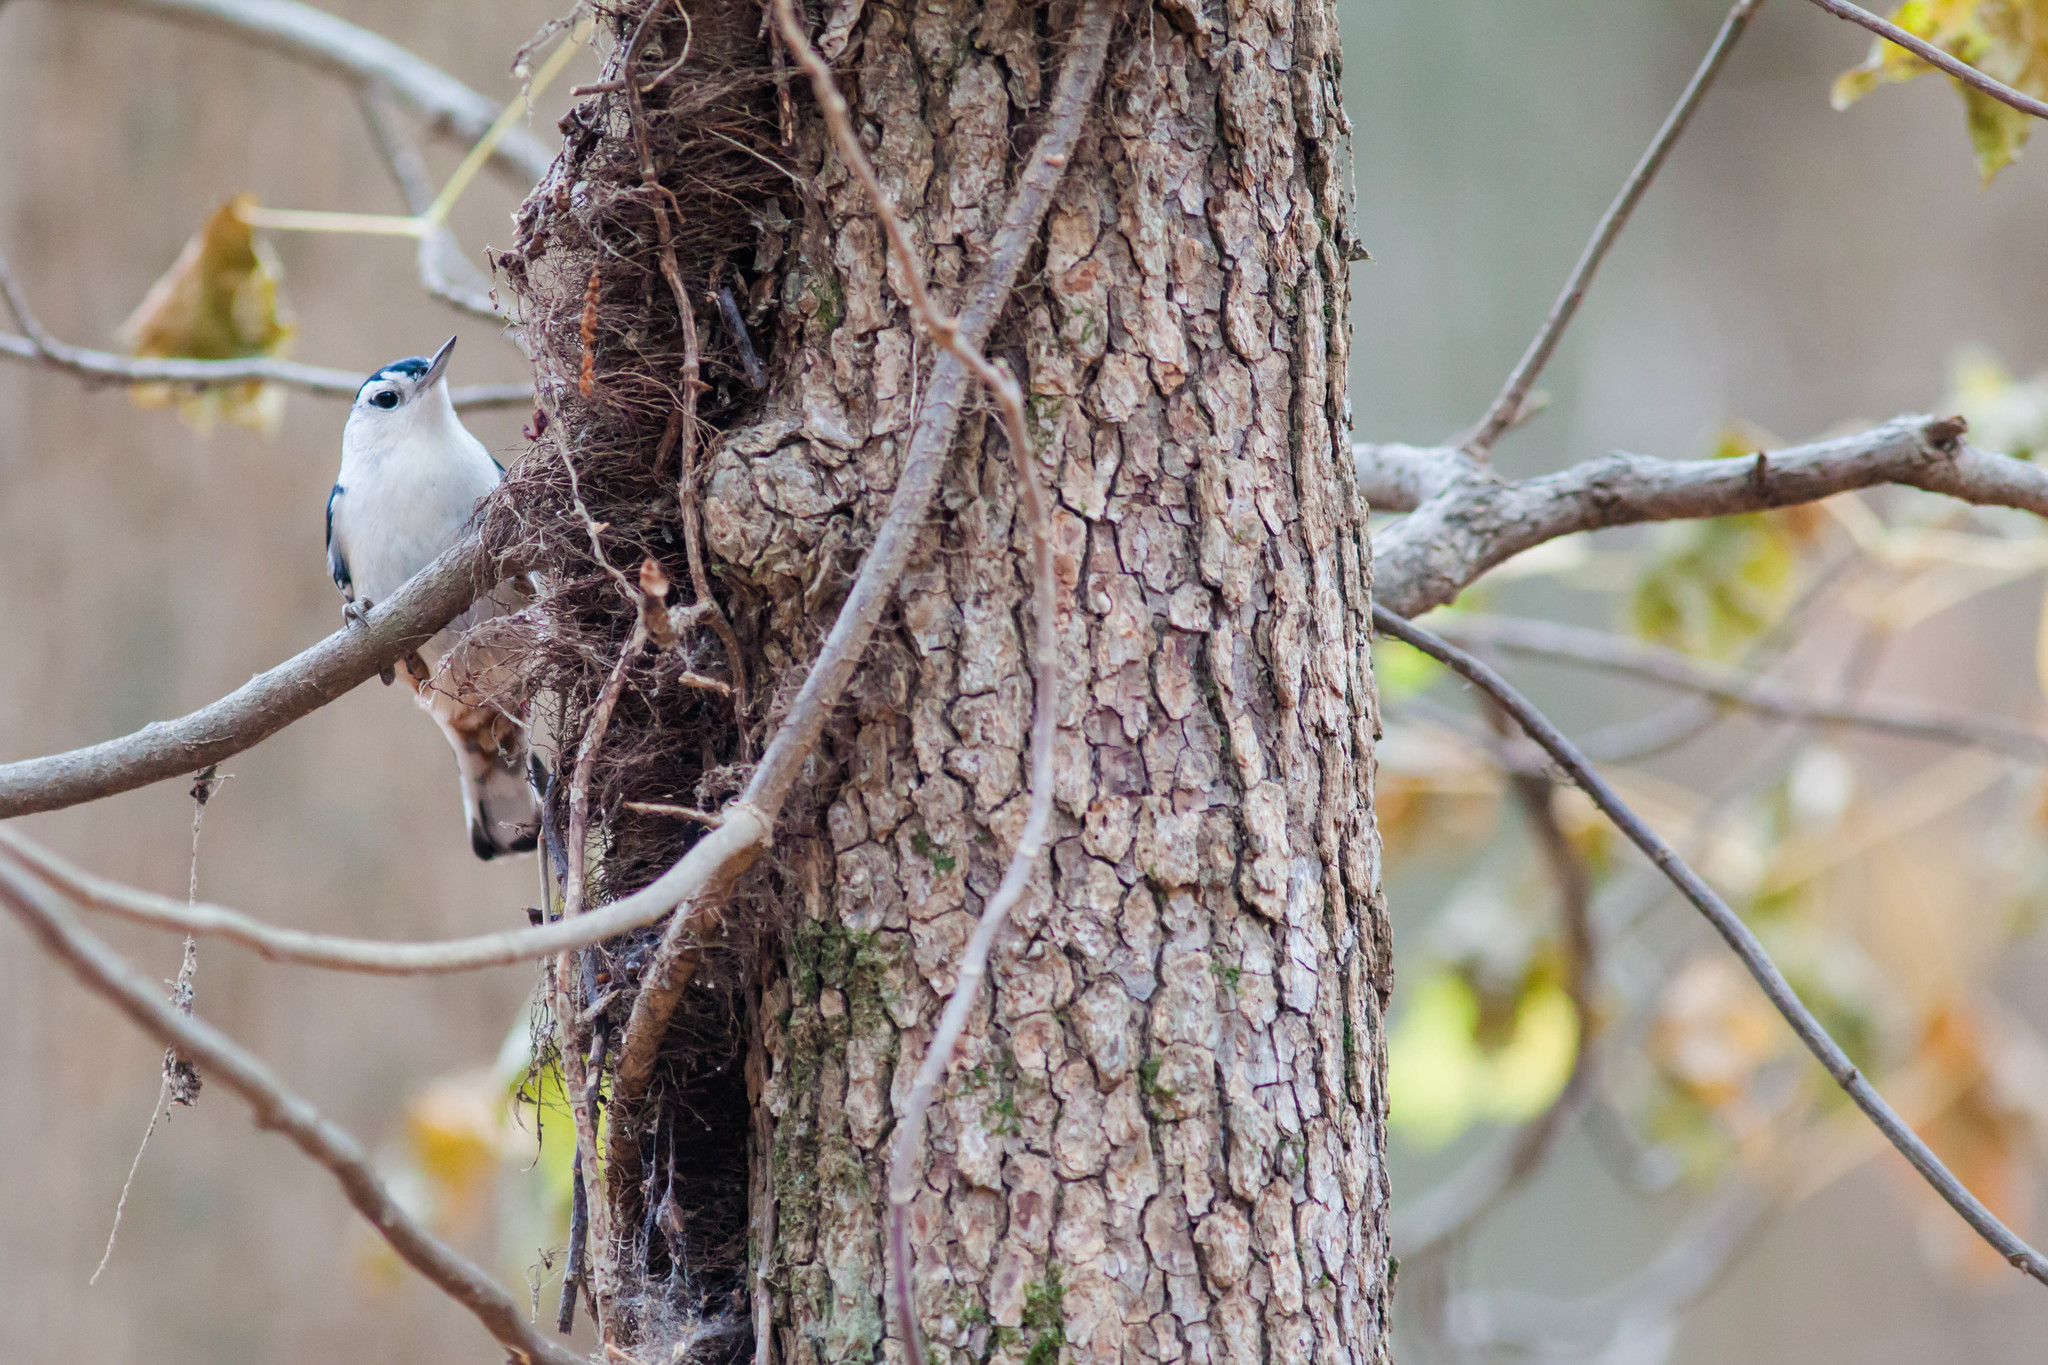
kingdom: Animalia
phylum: Chordata
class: Aves
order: Passeriformes
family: Sittidae
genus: Sitta
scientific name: Sitta carolinensis
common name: White-breasted nuthatch
